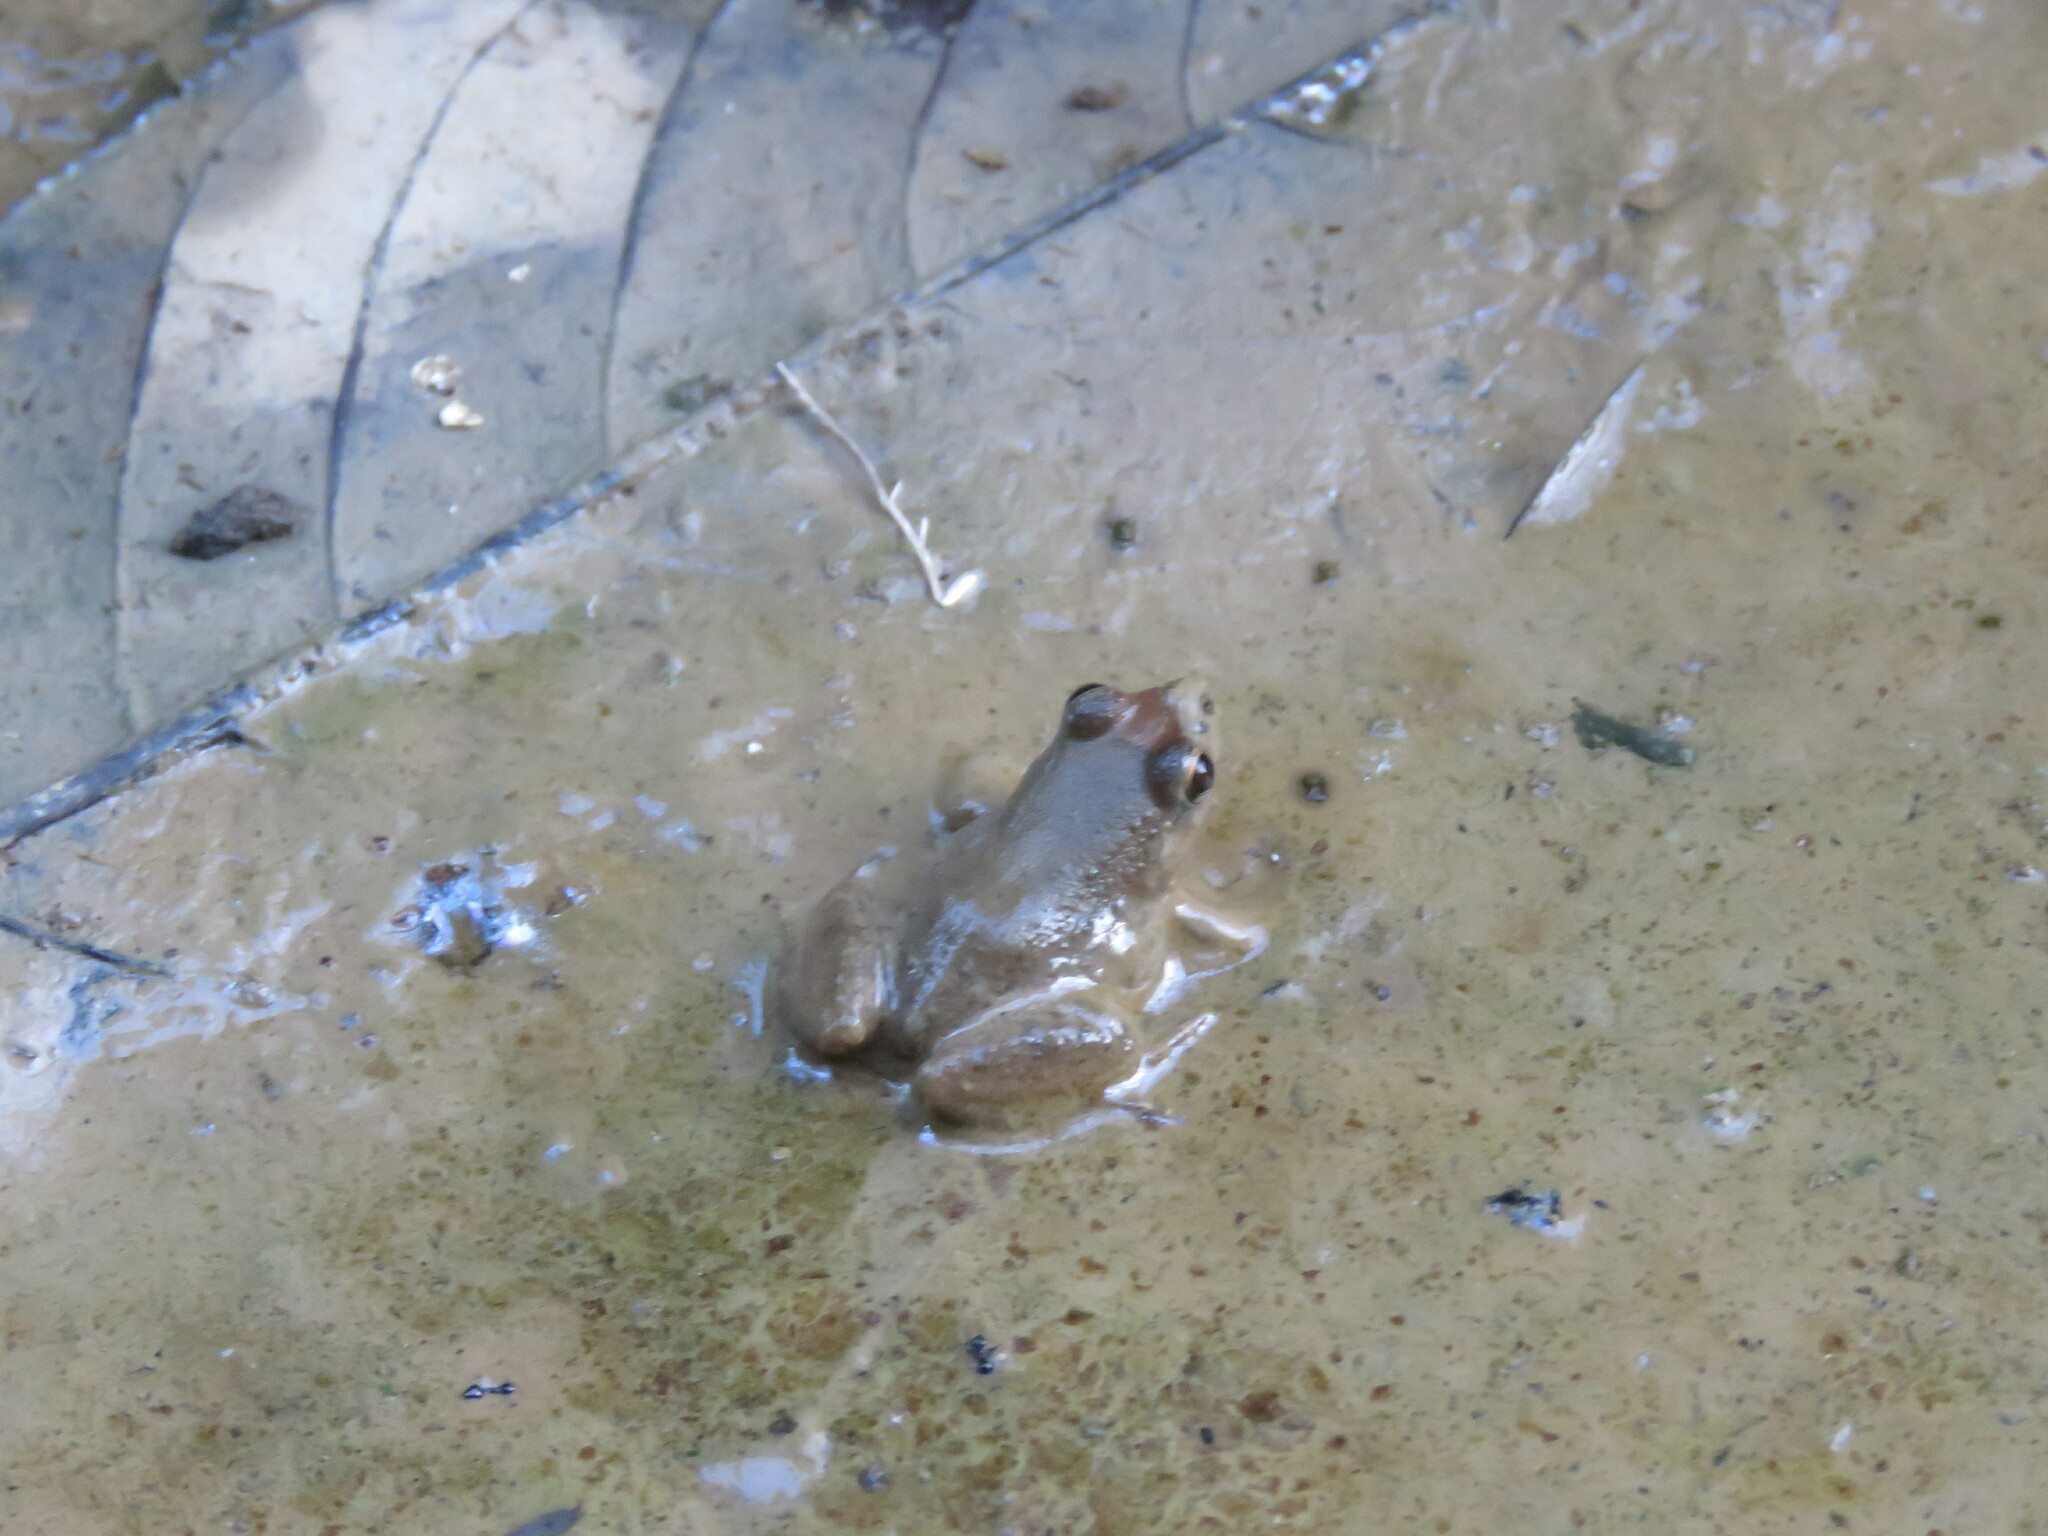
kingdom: Animalia
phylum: Chordata
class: Amphibia
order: Anura
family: Leptodactylidae
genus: Leptodactylus
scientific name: Leptodactylus petersii
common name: Peters' thin-toed frog
